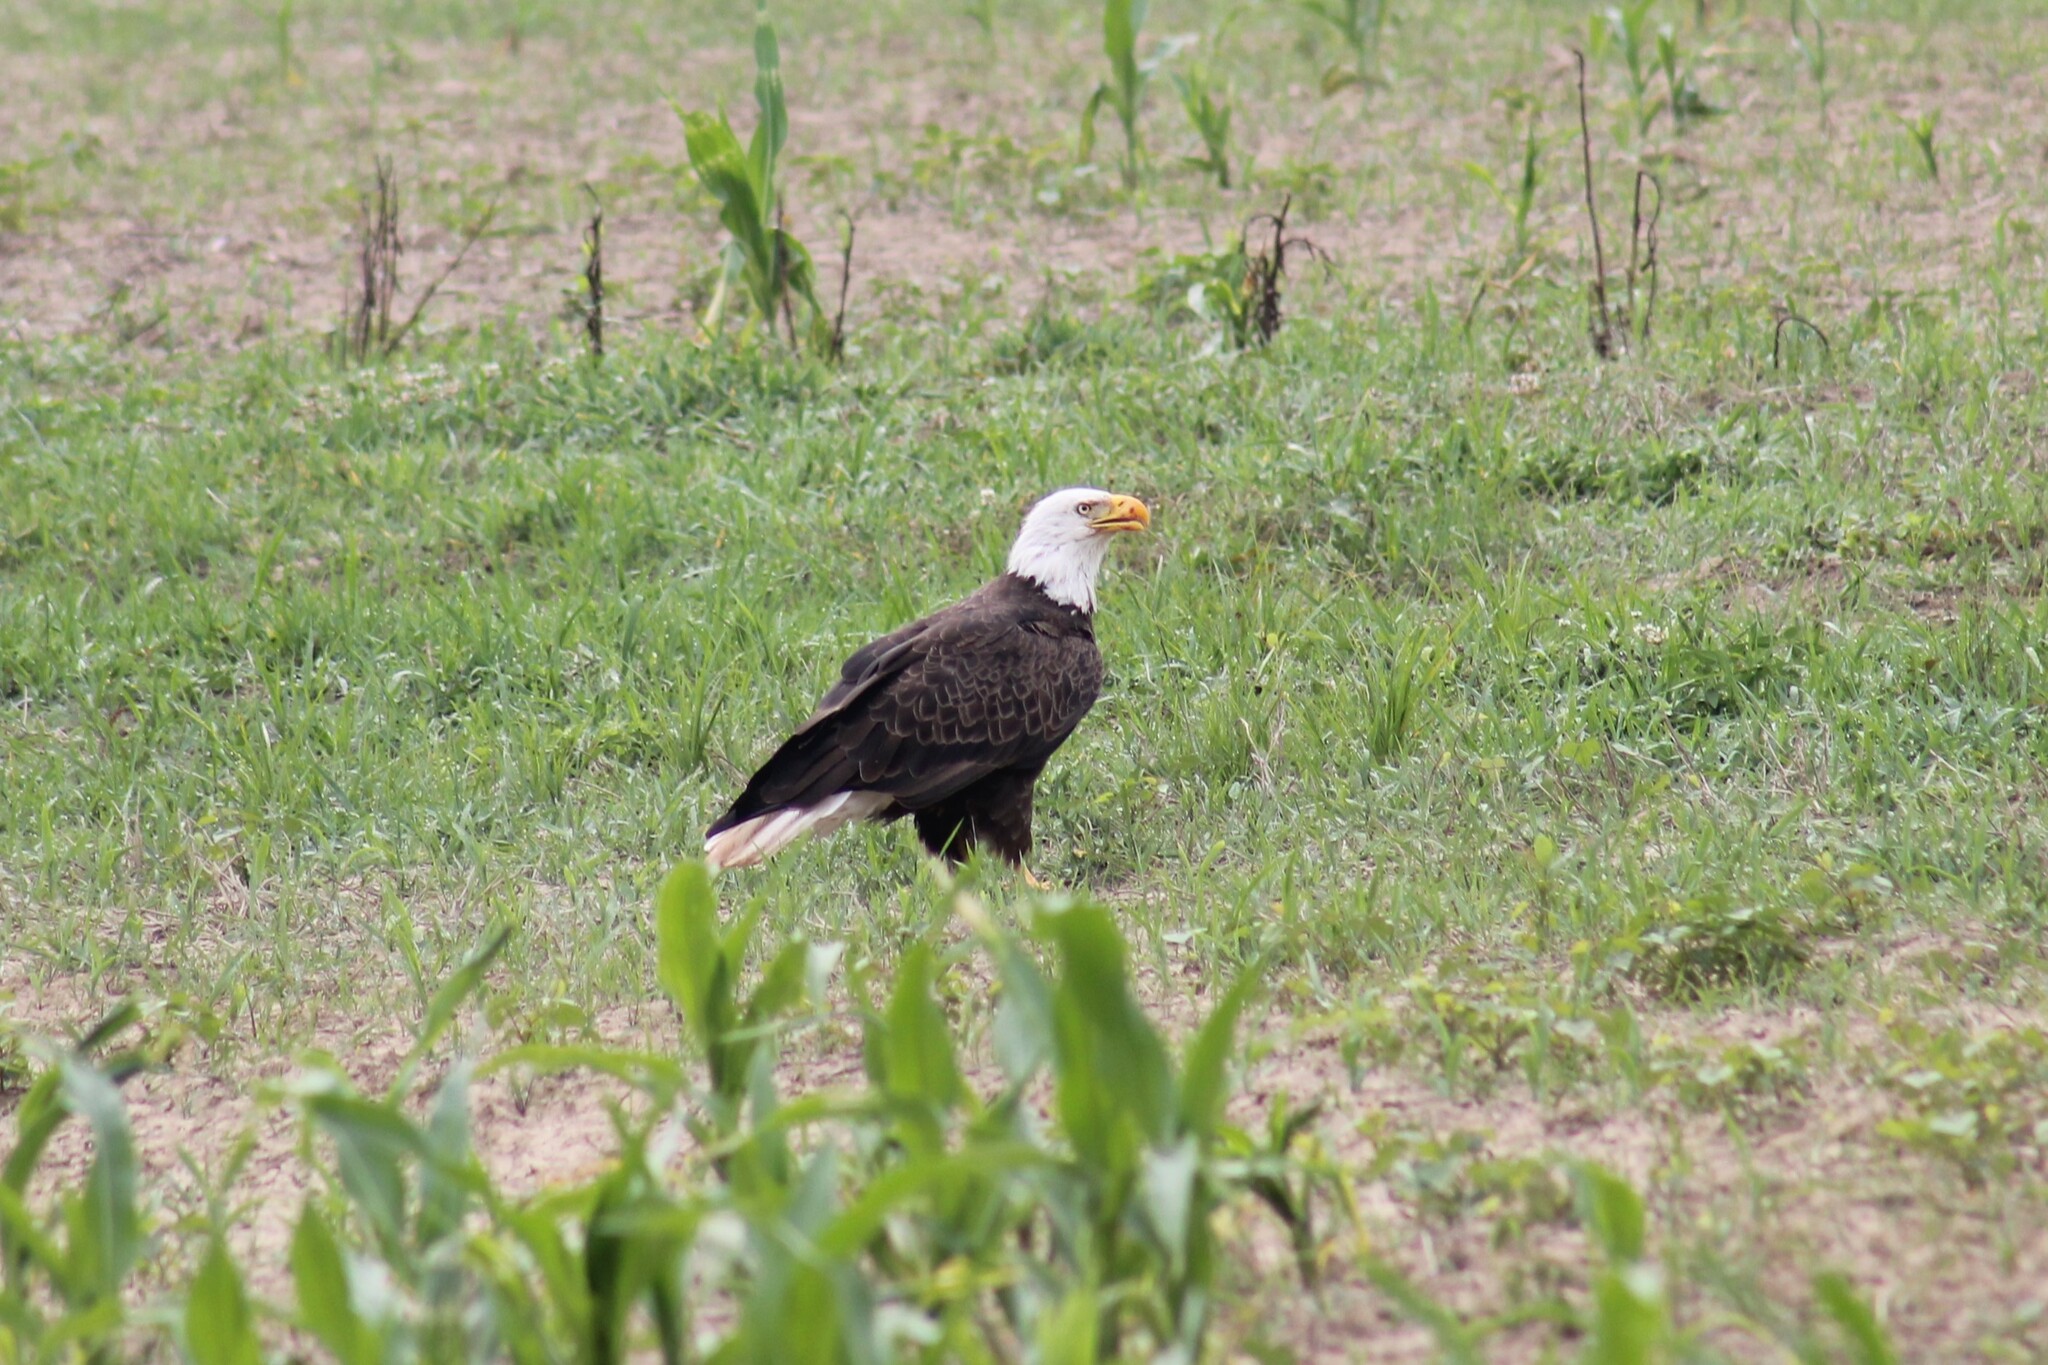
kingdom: Animalia
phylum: Chordata
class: Aves
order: Accipitriformes
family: Accipitridae
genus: Haliaeetus
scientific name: Haliaeetus leucocephalus
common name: Bald eagle
